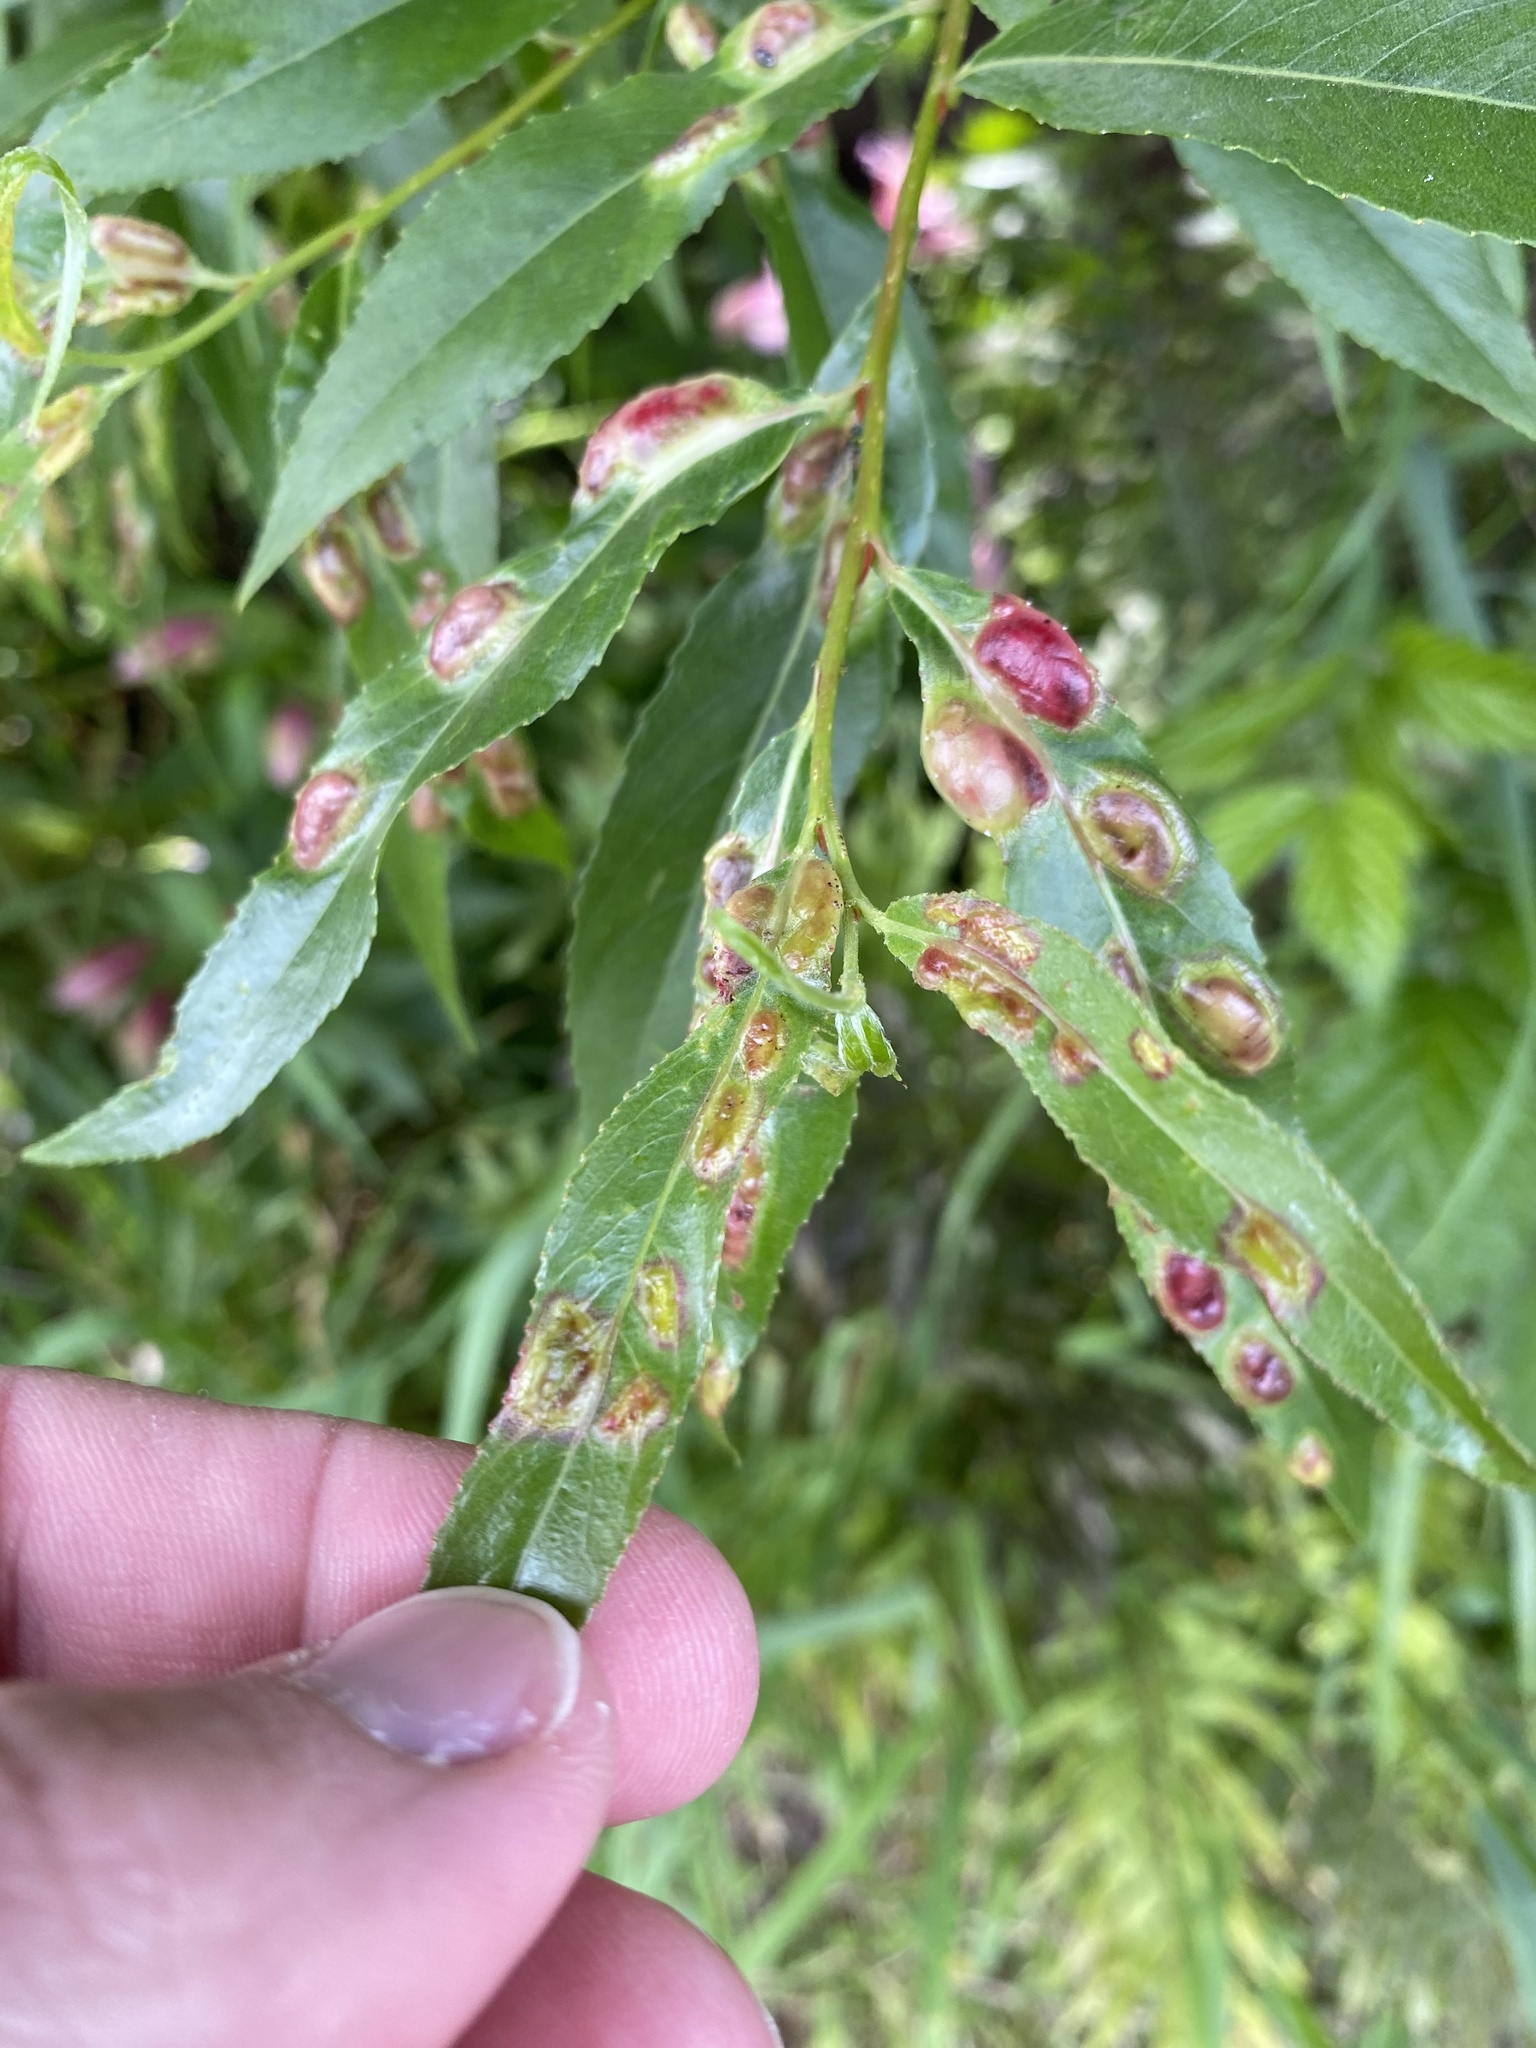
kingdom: Animalia
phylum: Arthropoda
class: Insecta
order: Hymenoptera
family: Tenthredinidae
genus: Pontania
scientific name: Pontania proxima
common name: Common sawfly
